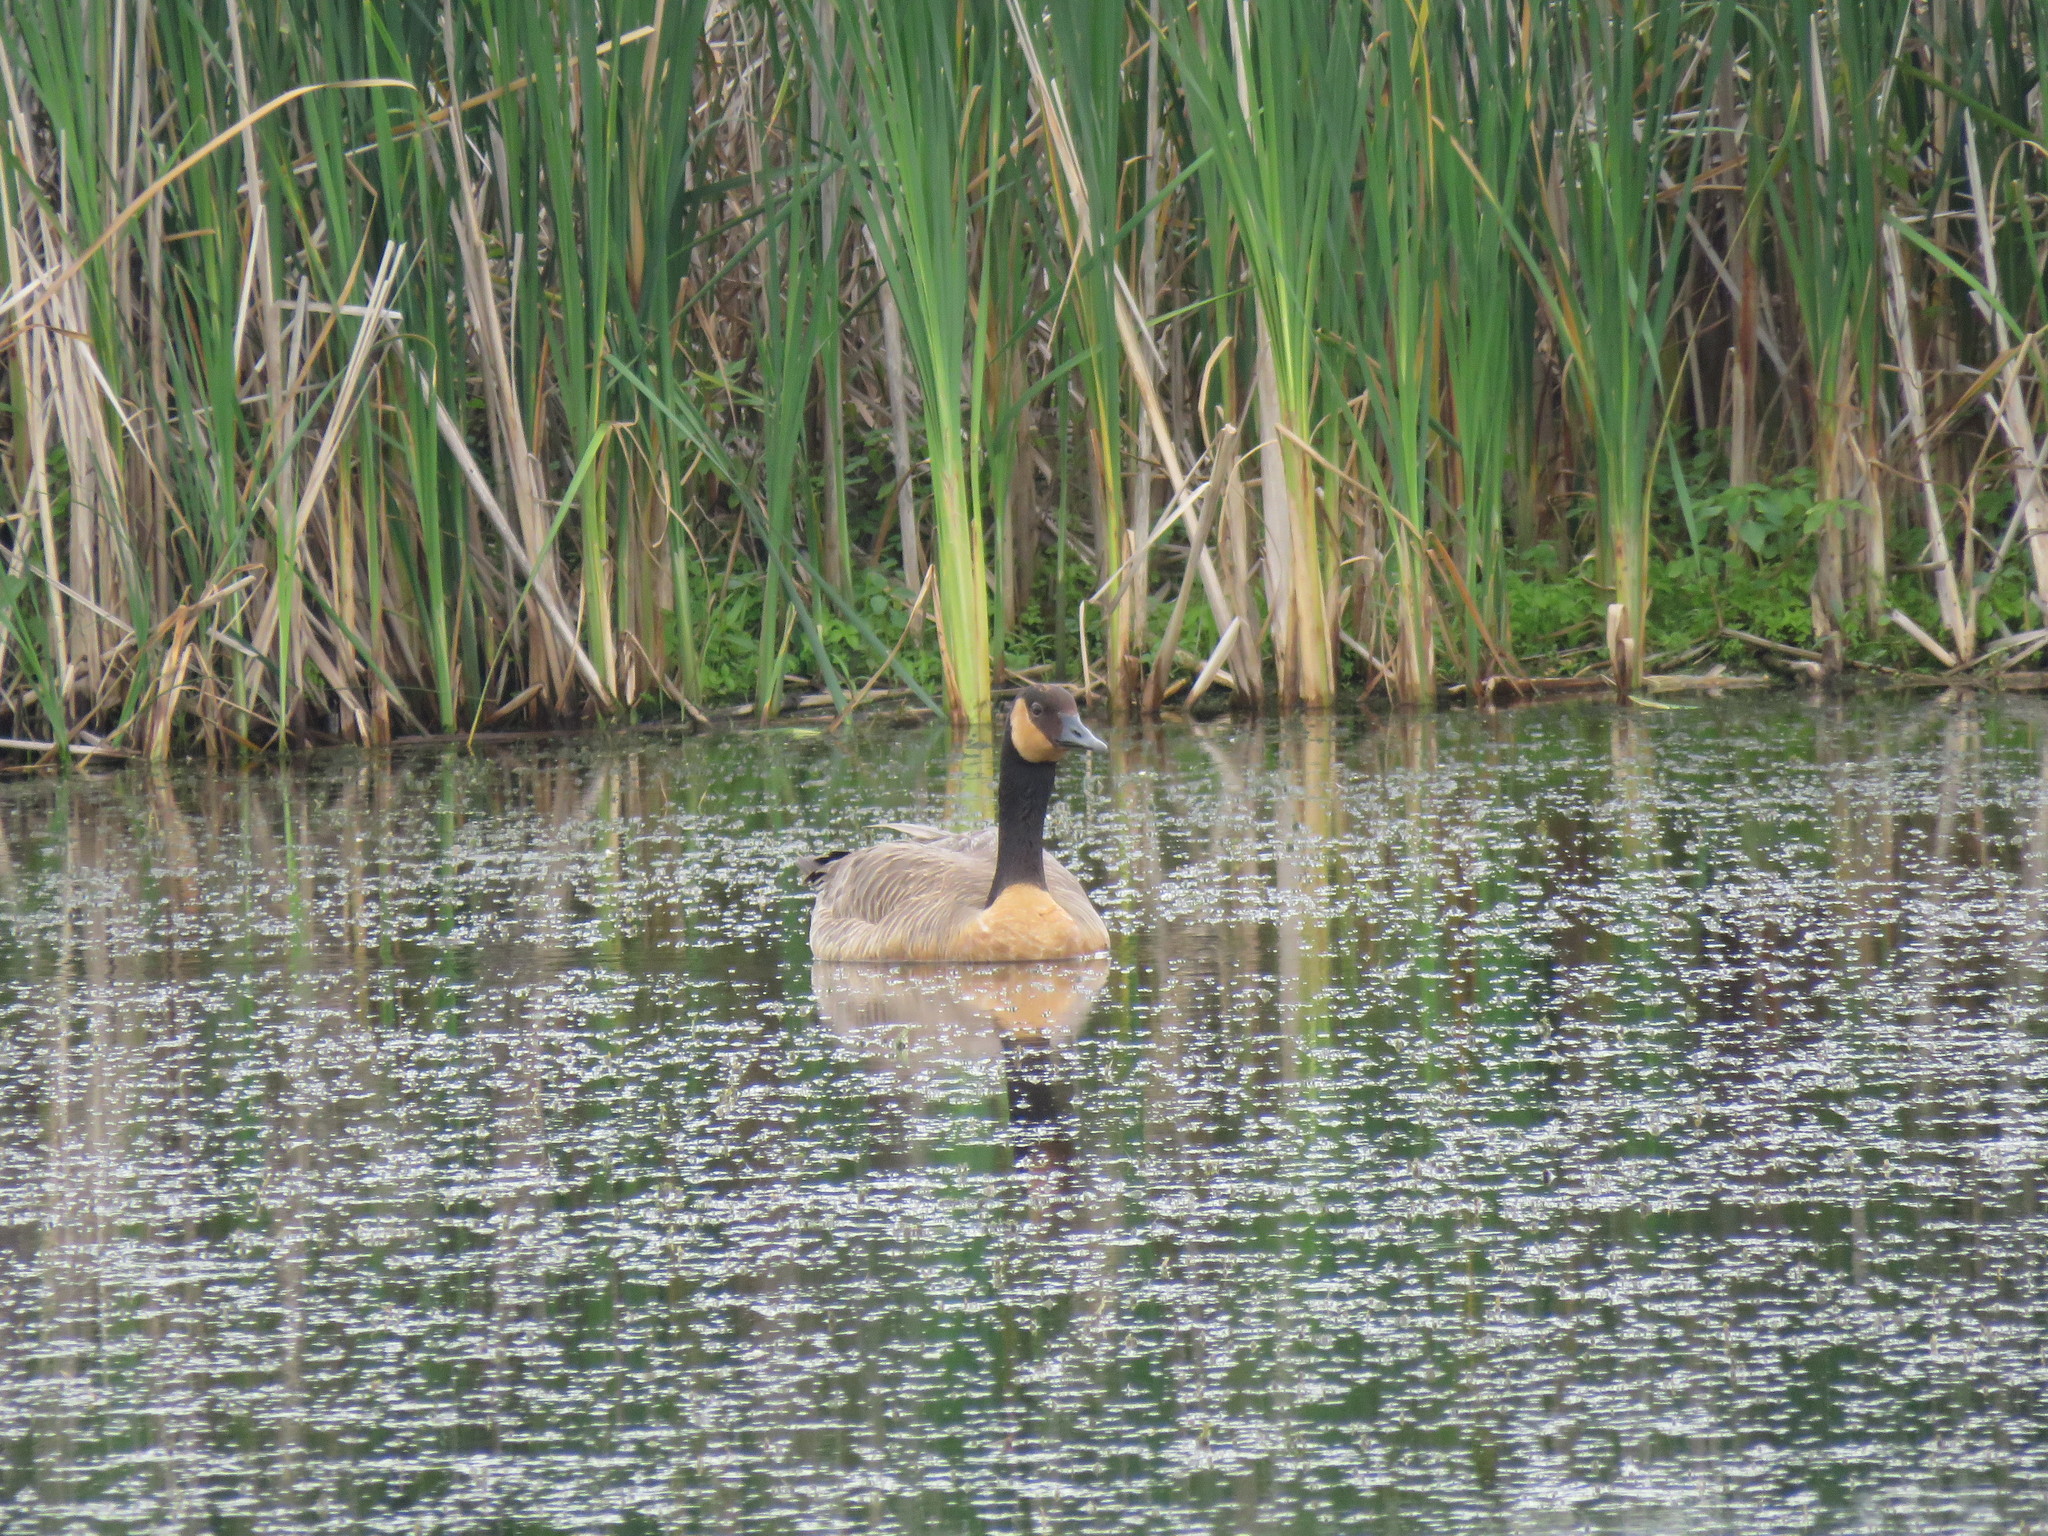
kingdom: Animalia
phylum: Chordata
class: Aves
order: Anseriformes
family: Anatidae
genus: Branta
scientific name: Branta canadensis
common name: Canada goose
